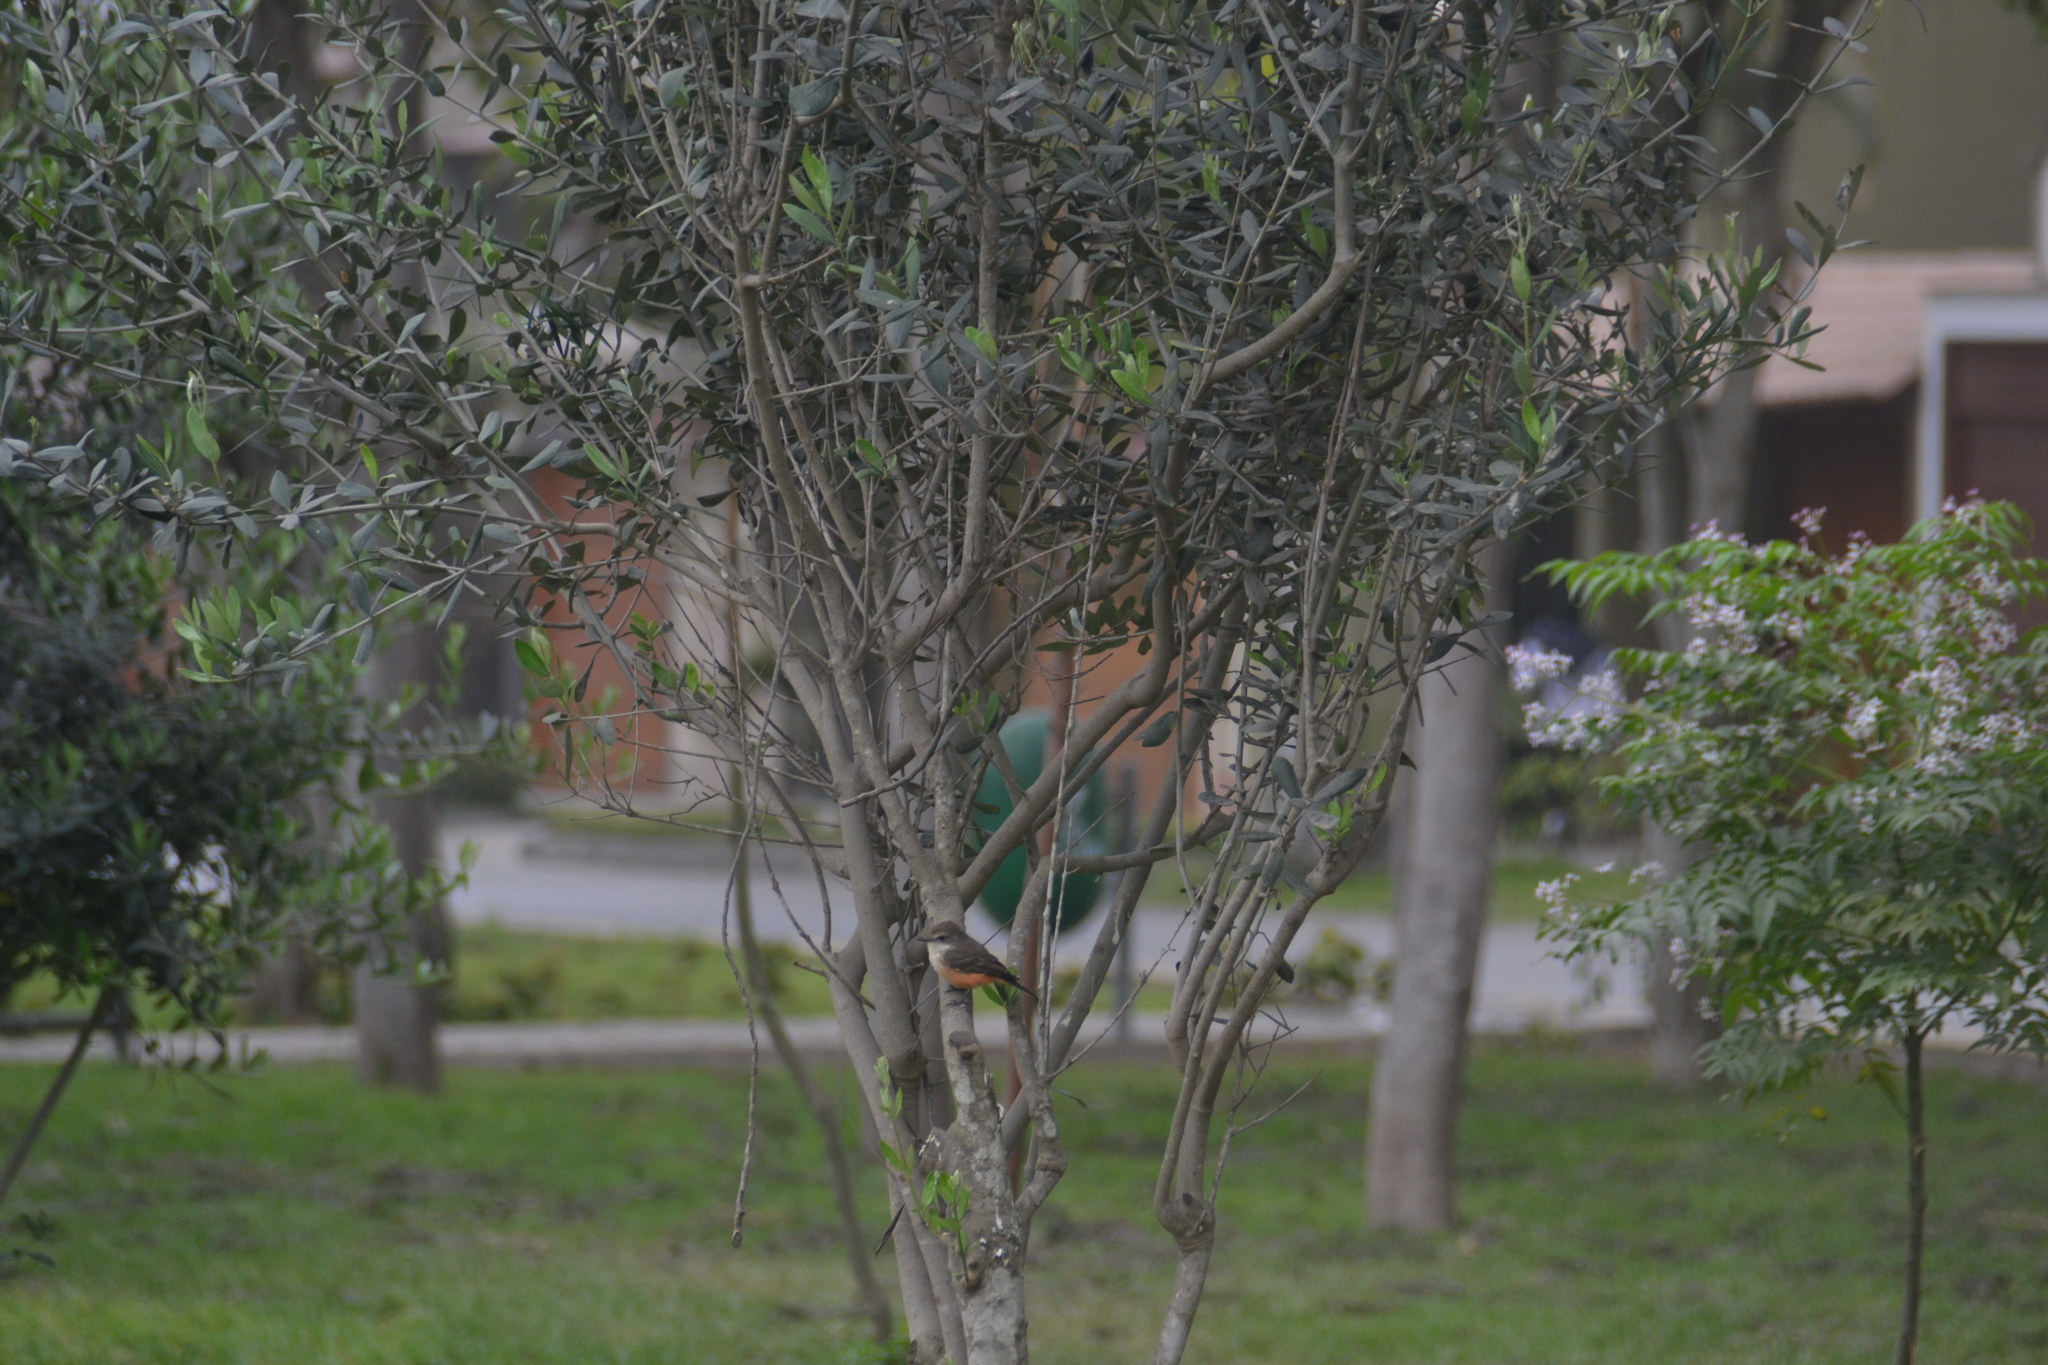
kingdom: Animalia
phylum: Chordata
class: Aves
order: Passeriformes
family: Tyrannidae
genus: Pyrocephalus
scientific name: Pyrocephalus rubinus
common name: Vermilion flycatcher
